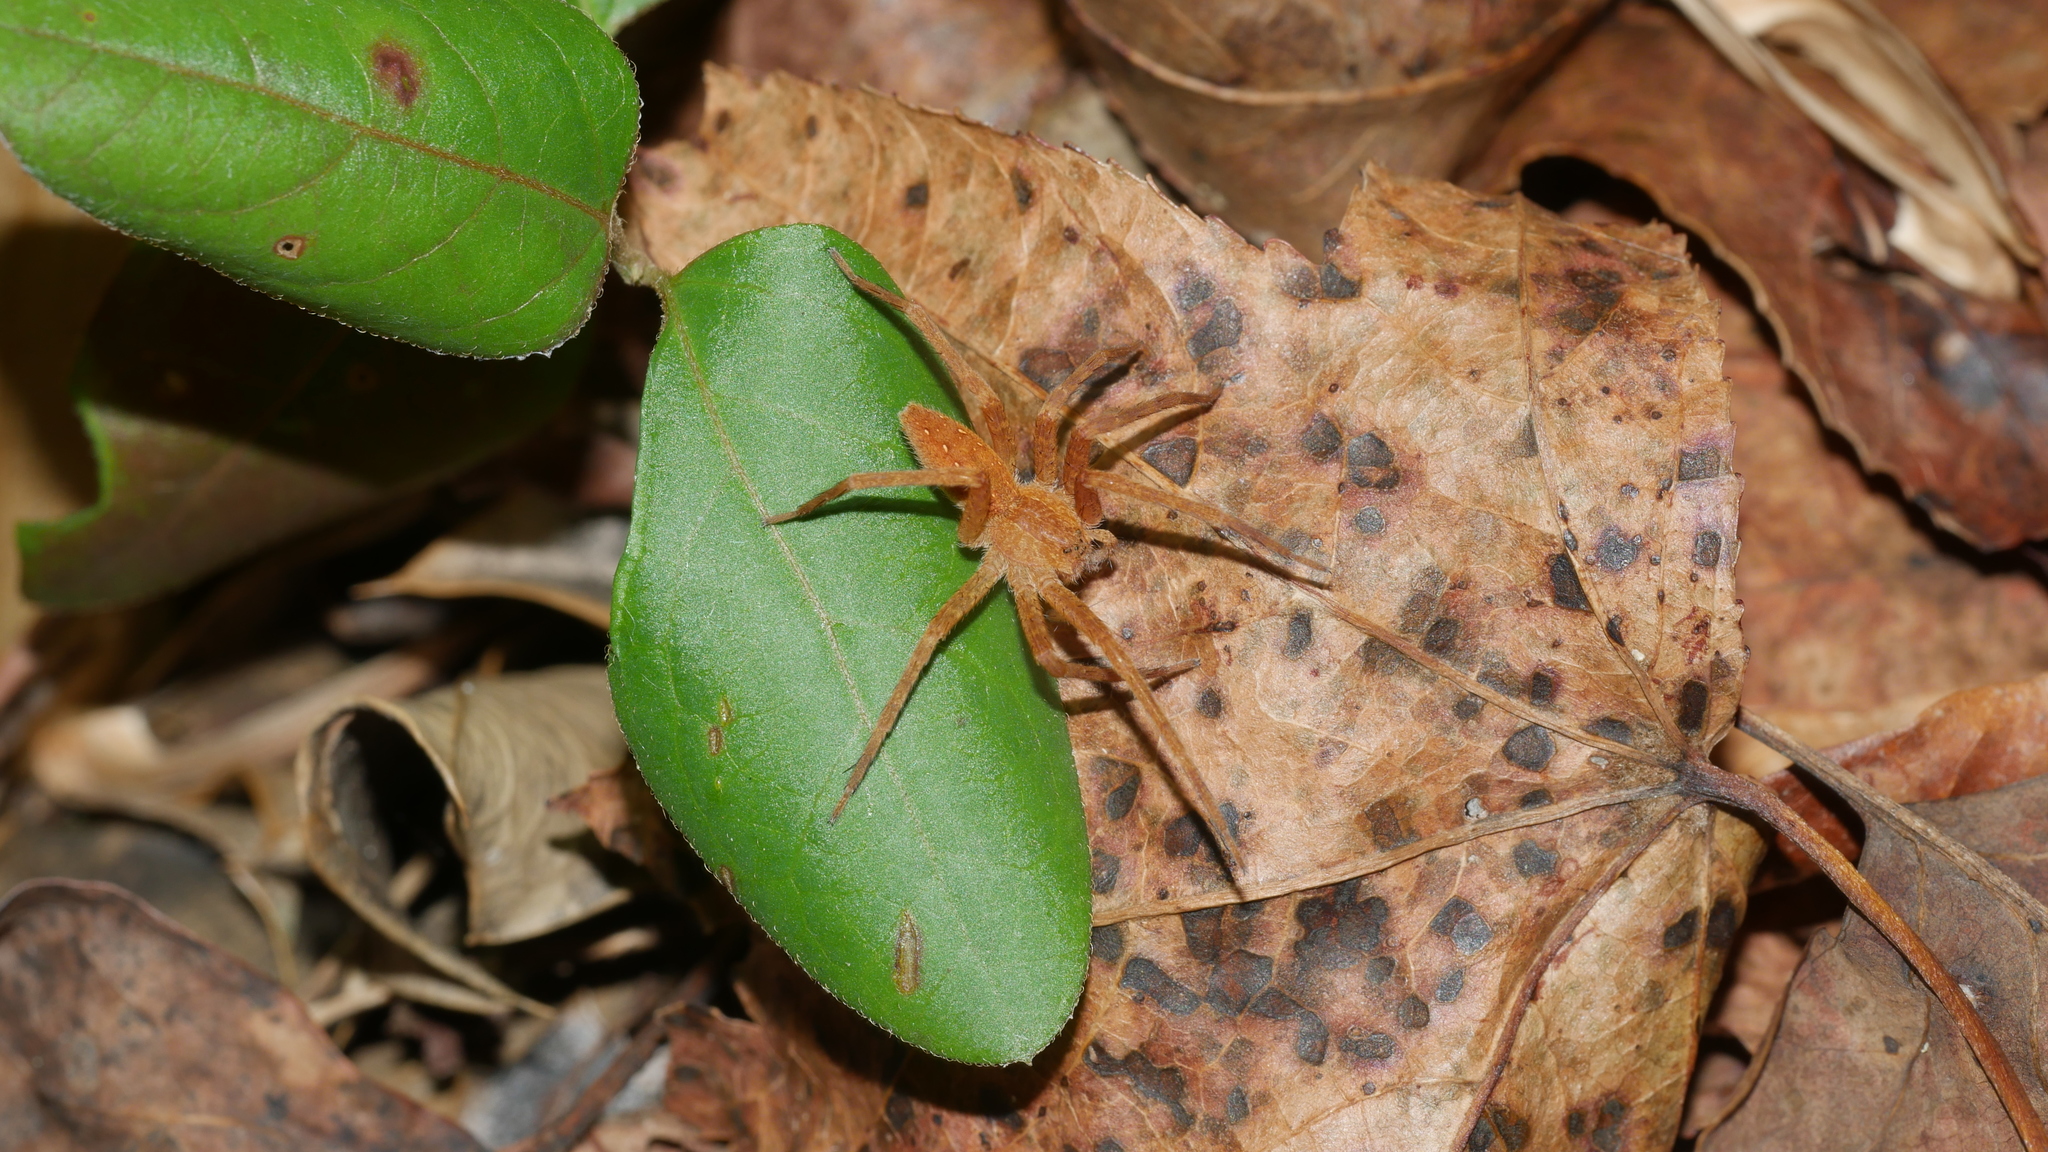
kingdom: Animalia
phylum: Arthropoda
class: Arachnida
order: Araneae
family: Pisauridae
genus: Pisaurina
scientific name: Pisaurina mira
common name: American nursery web spider
